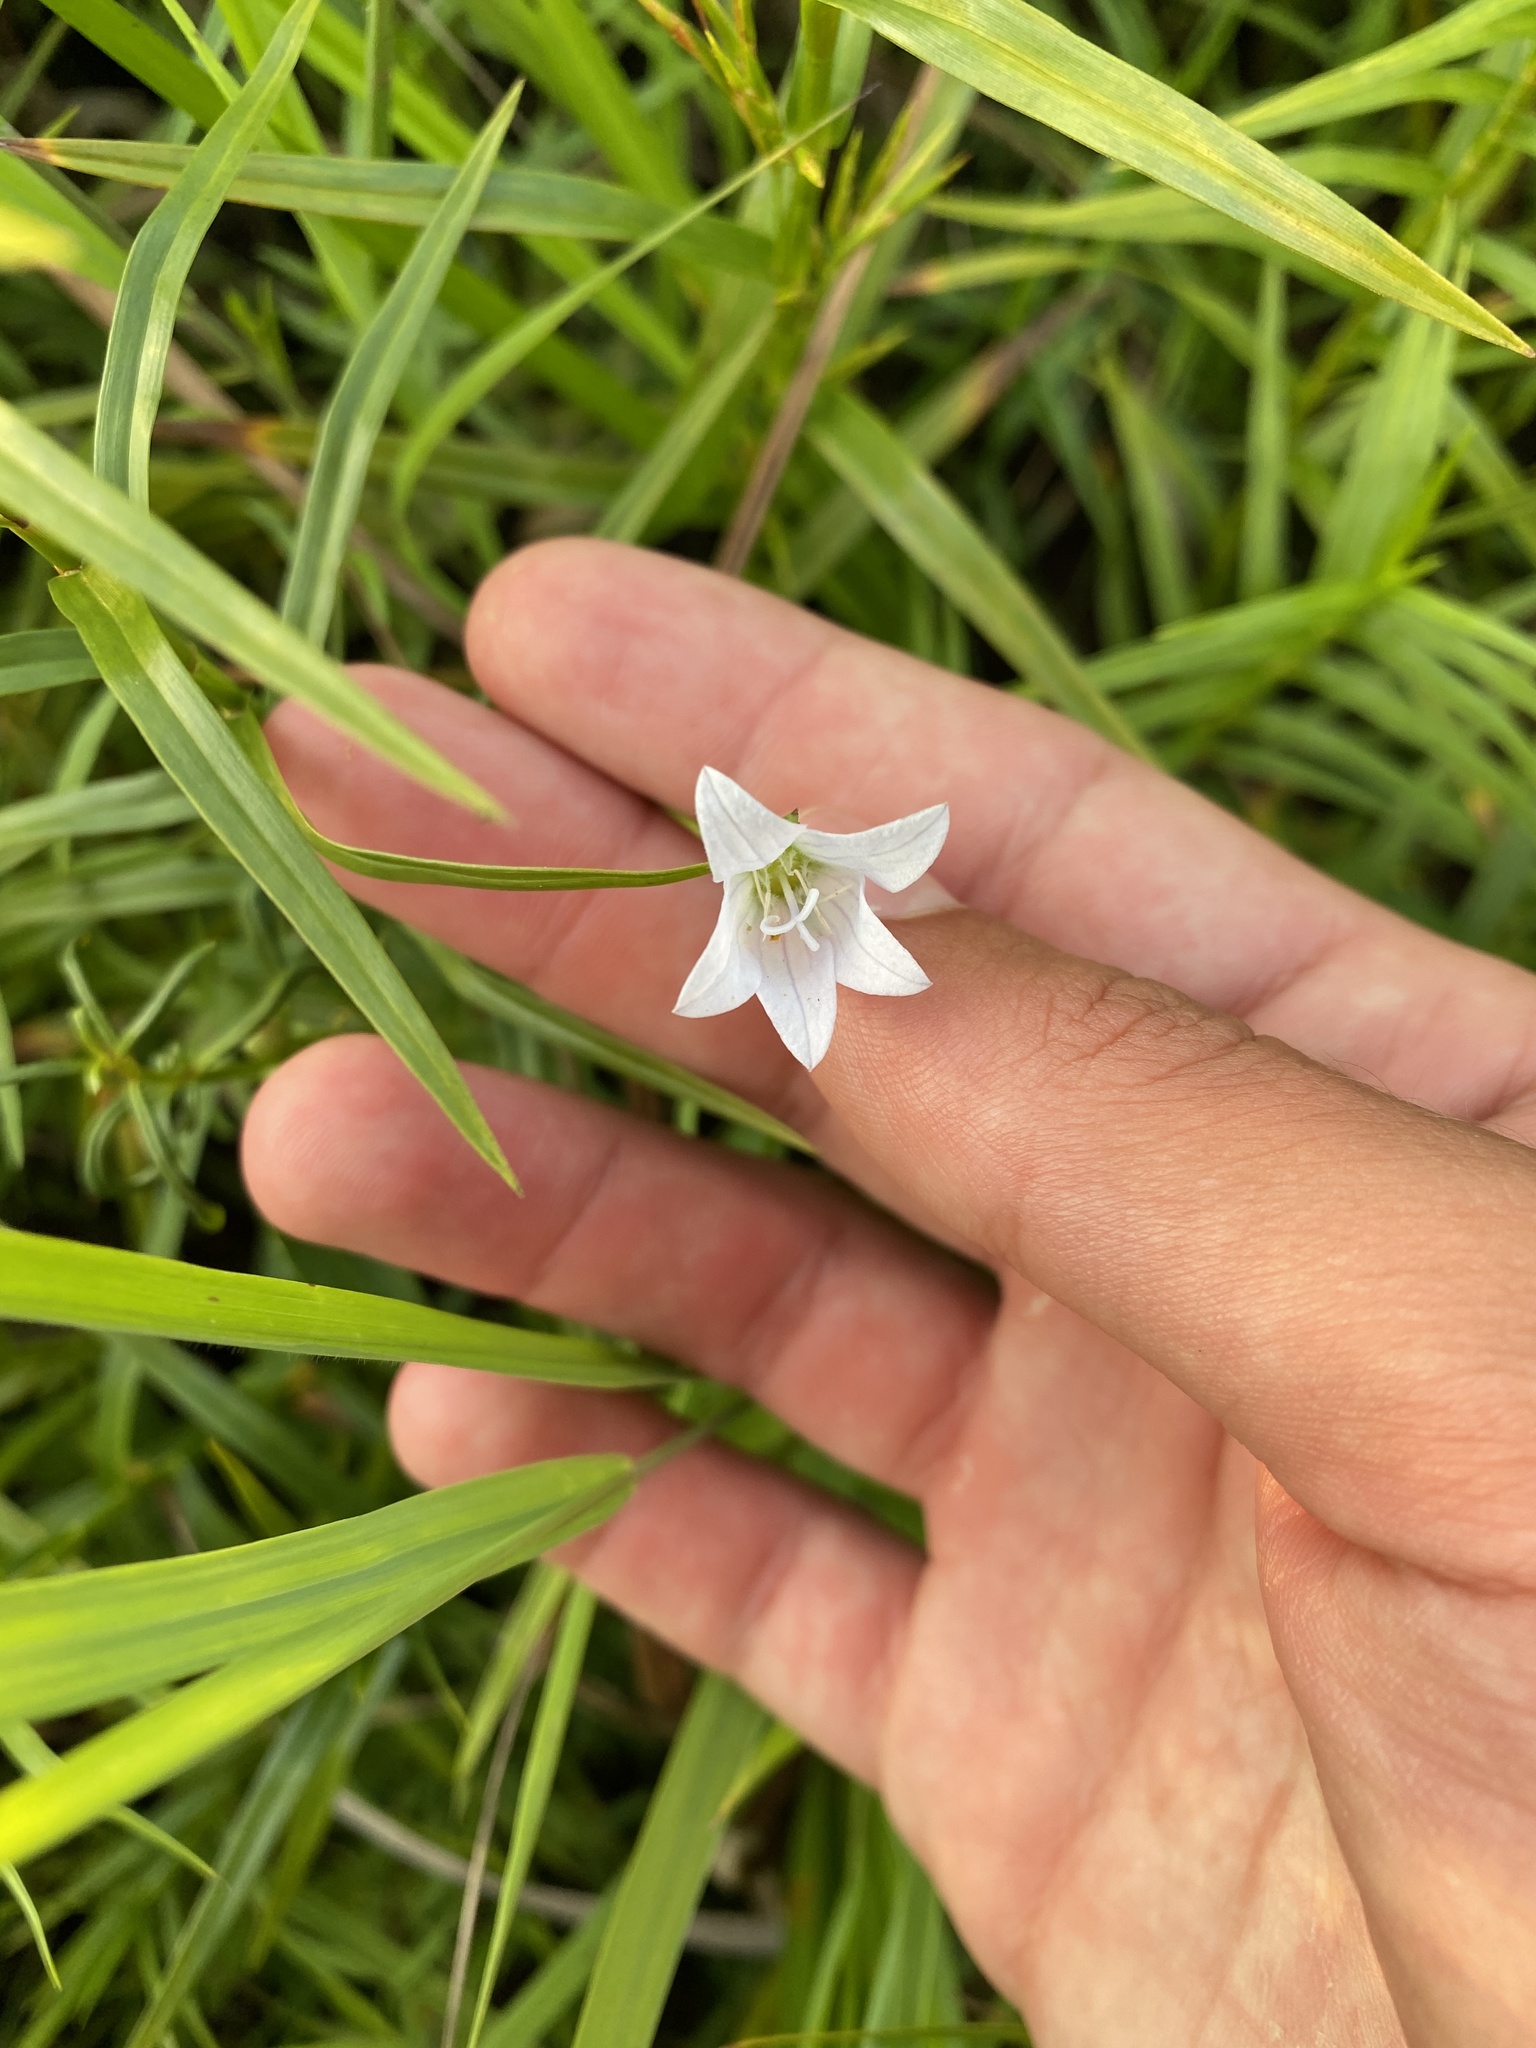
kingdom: Plantae
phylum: Tracheophyta
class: Magnoliopsida
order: Asterales
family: Campanulaceae
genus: Palustricodon
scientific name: Palustricodon aparinoides
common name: Bedstraw bellflower
